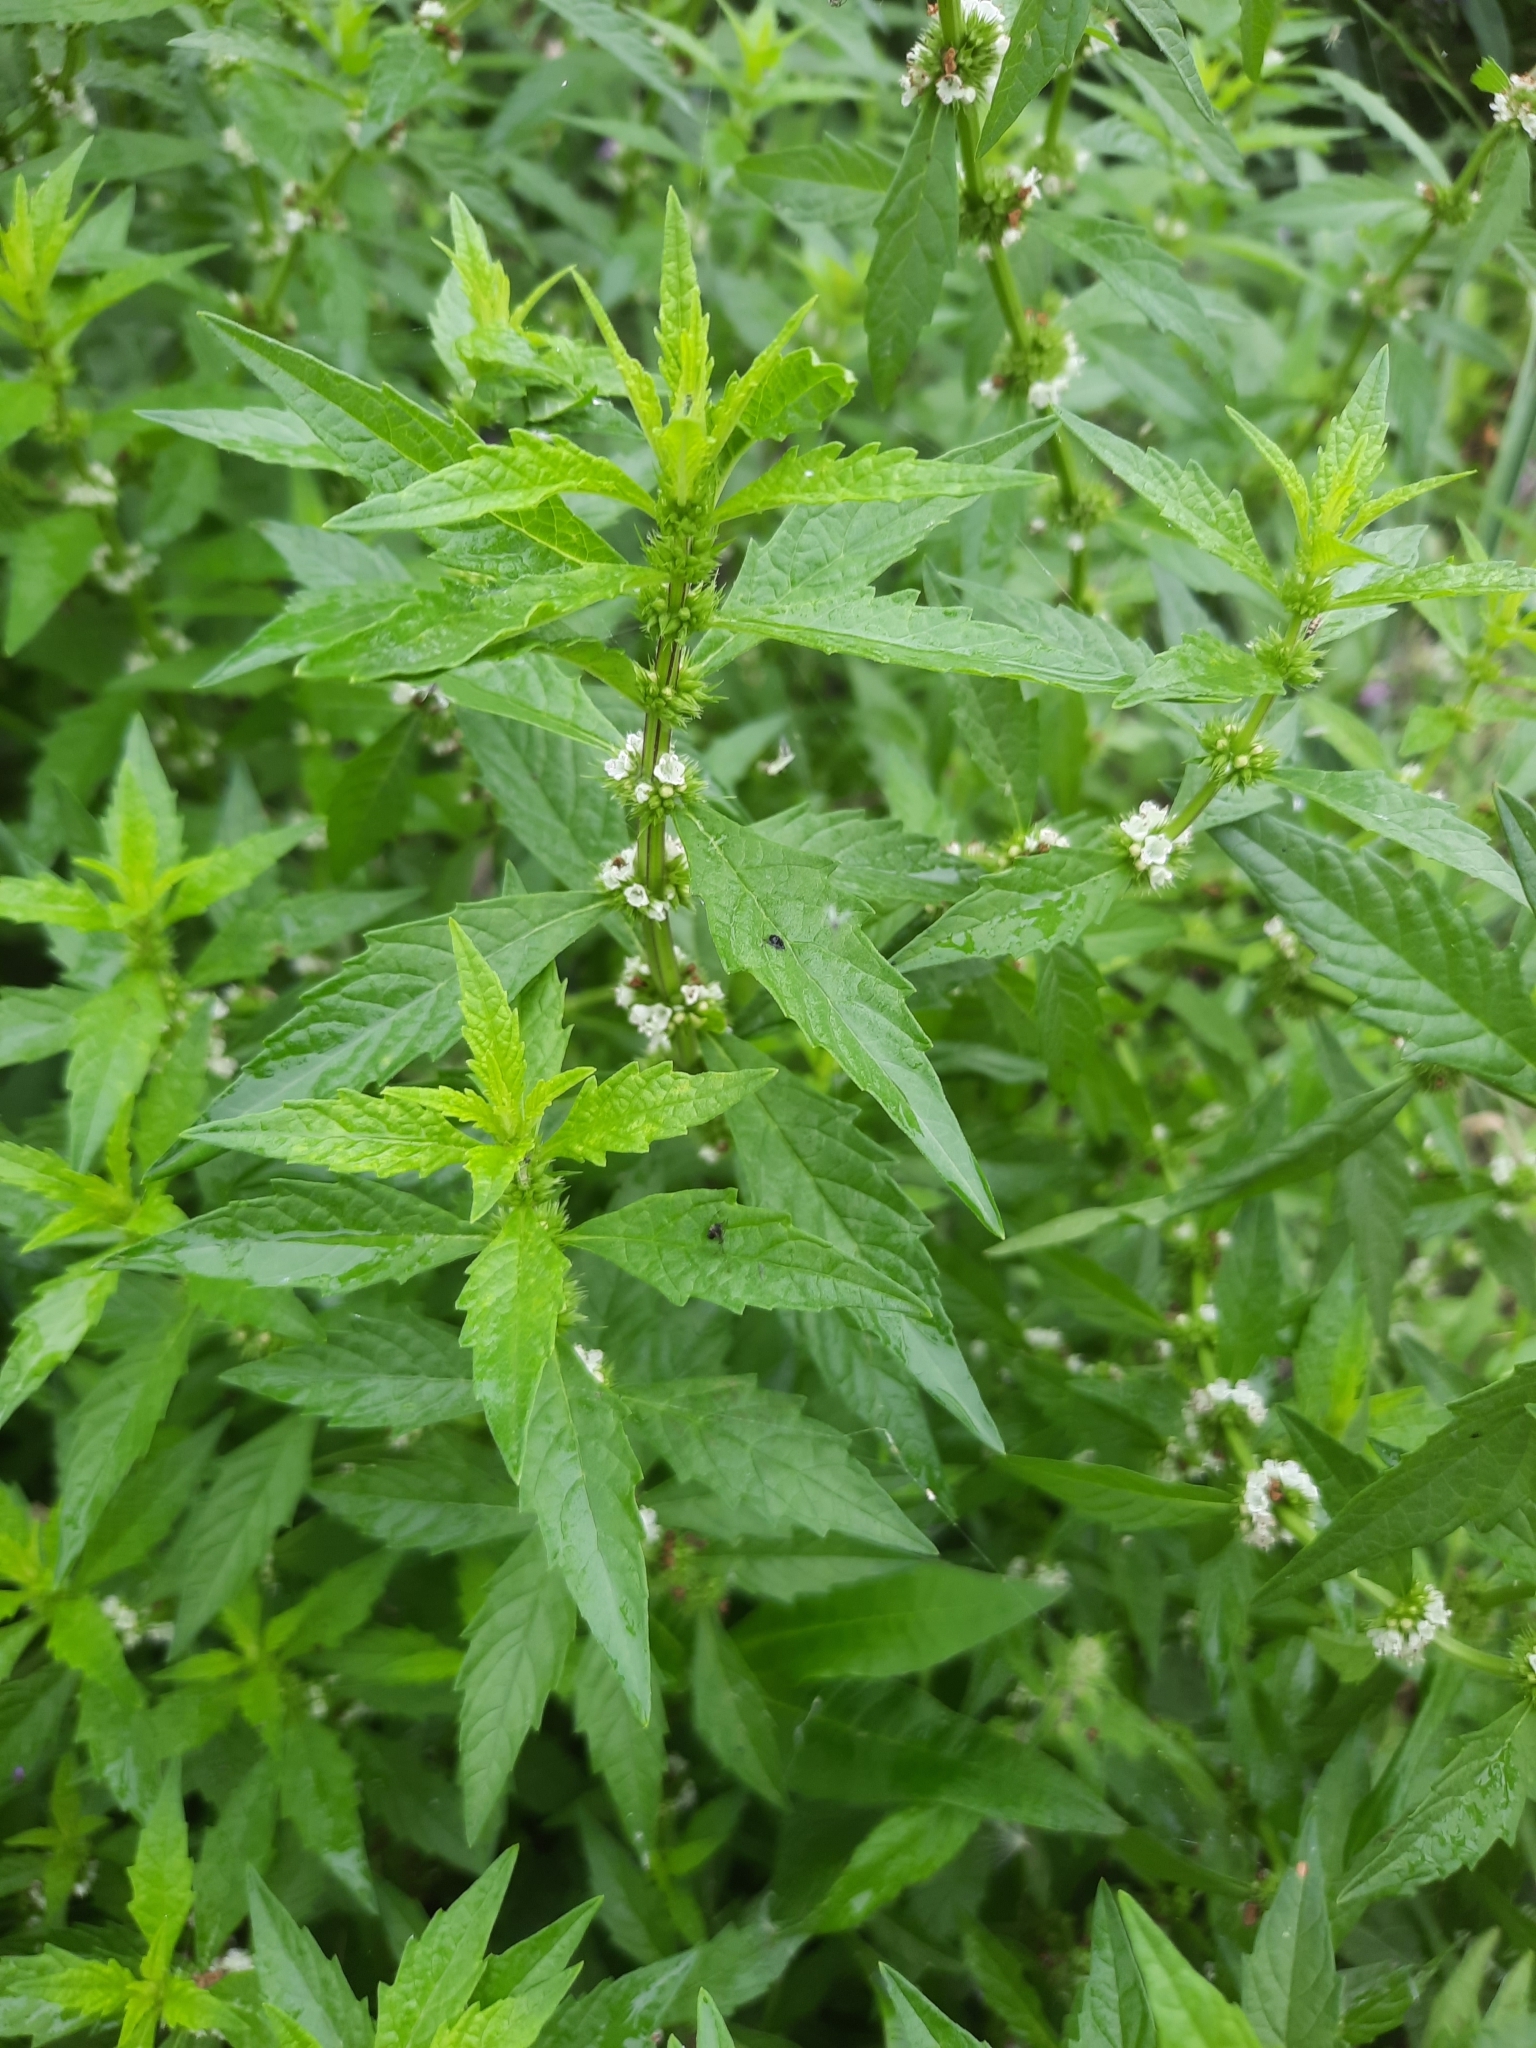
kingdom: Plantae
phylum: Tracheophyta
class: Magnoliopsida
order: Lamiales
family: Lamiaceae
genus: Lycopus
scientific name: Lycopus europaeus
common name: European bugleweed
